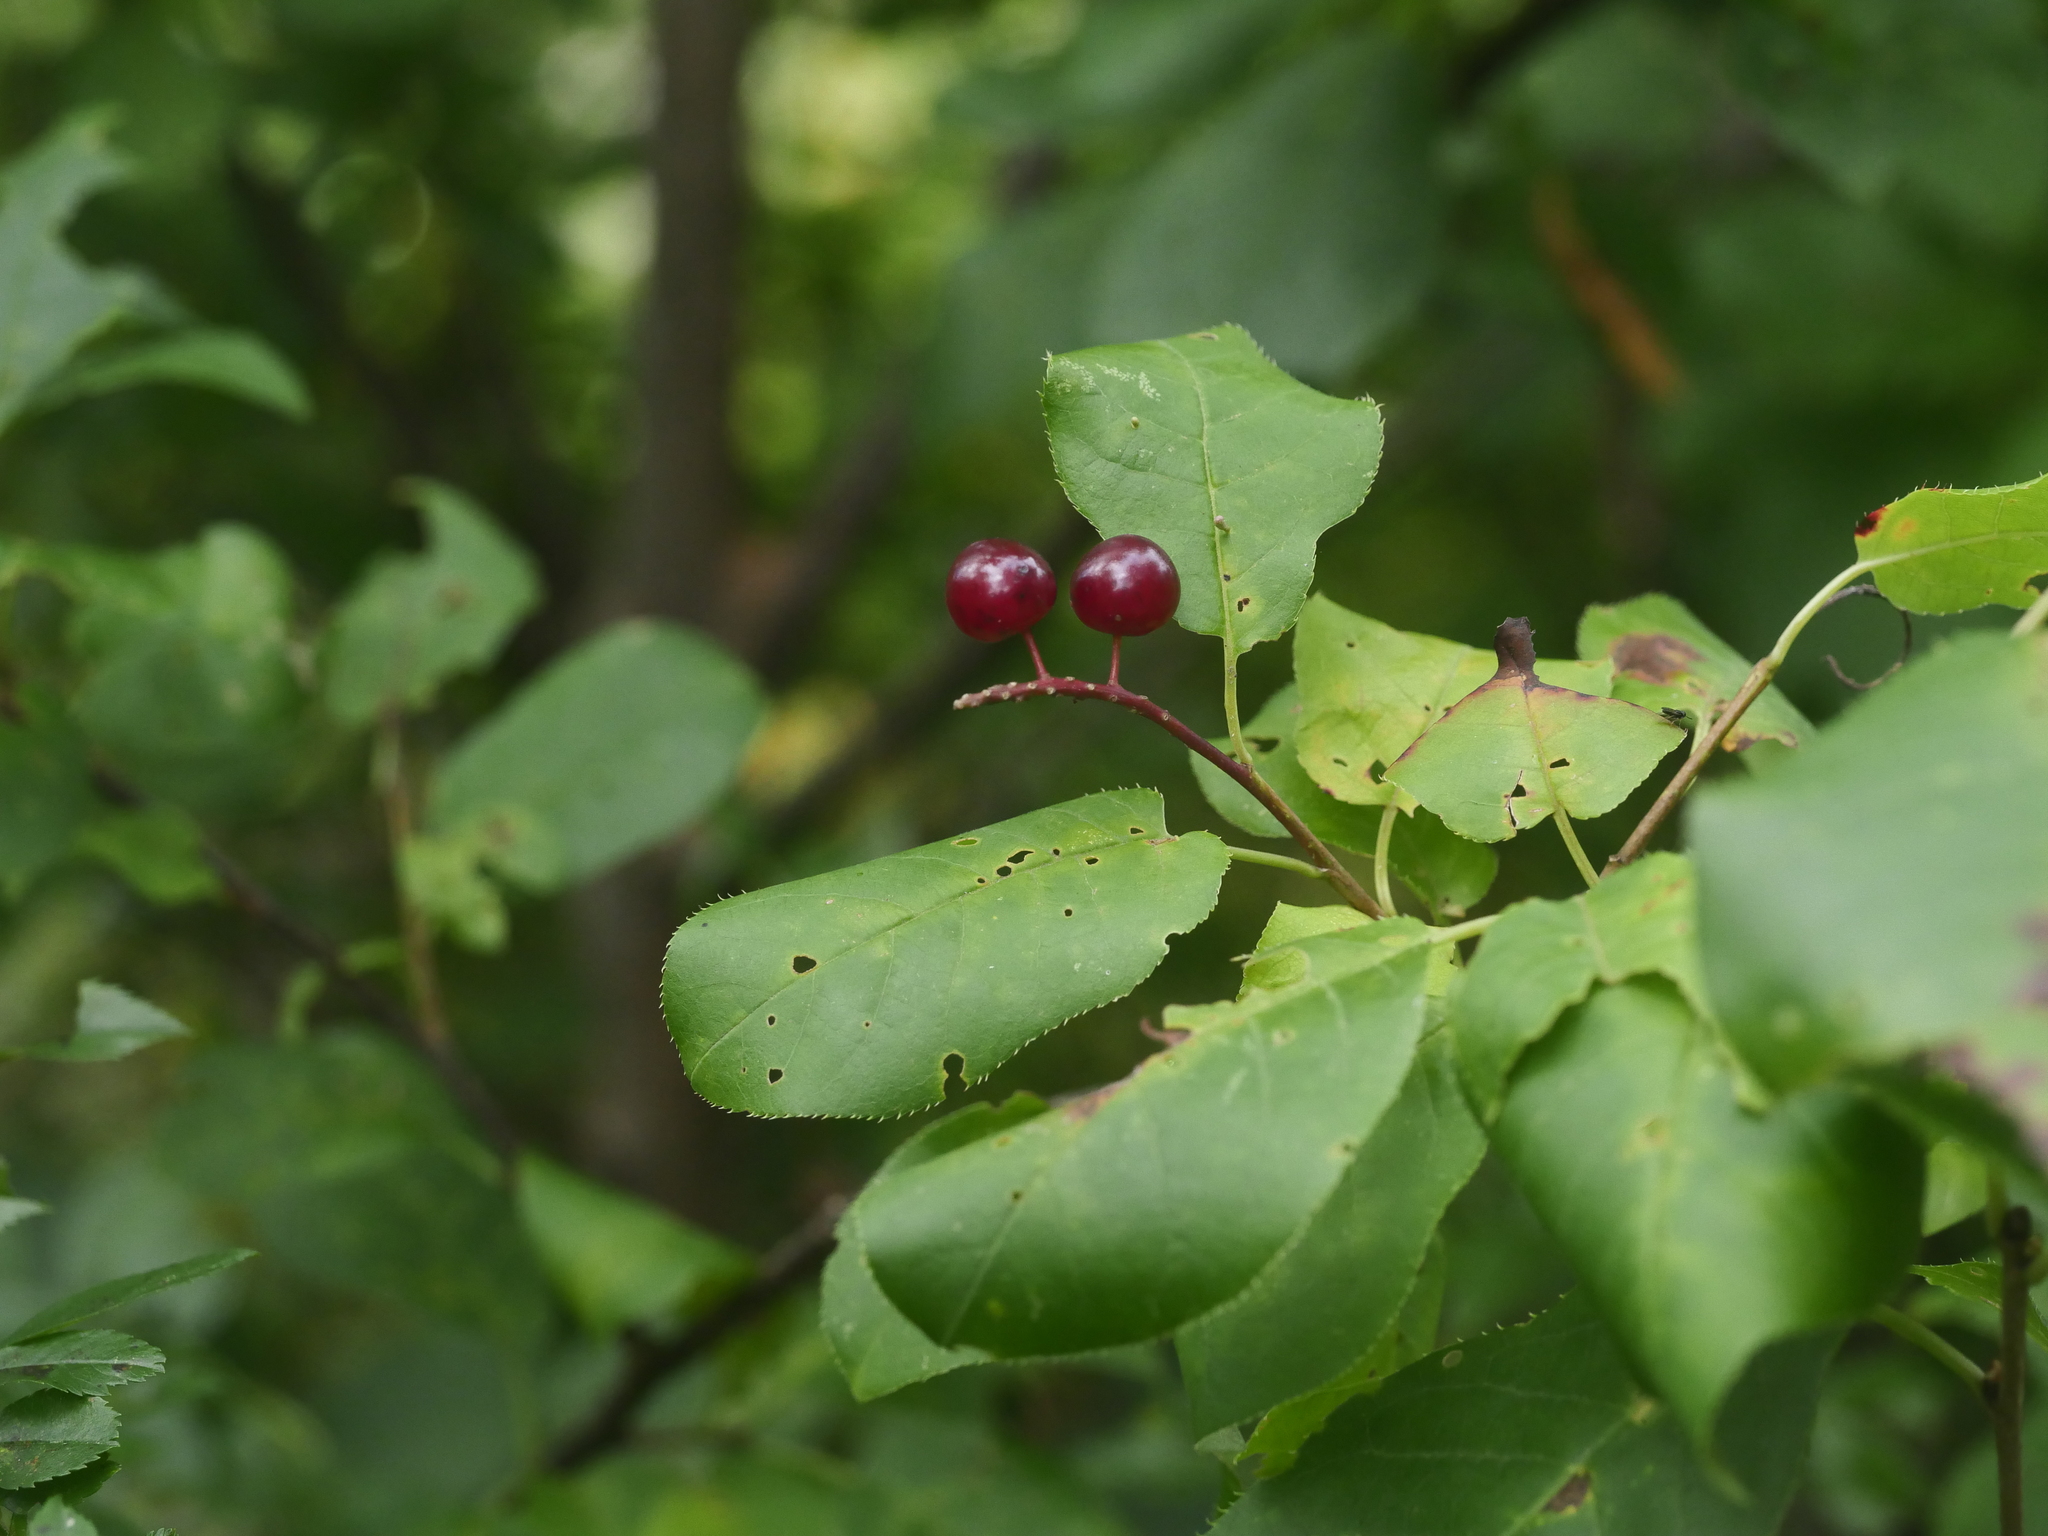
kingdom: Plantae
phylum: Tracheophyta
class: Magnoliopsida
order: Rosales
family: Rosaceae
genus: Prunus
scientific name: Prunus virginiana
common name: Chokecherry
